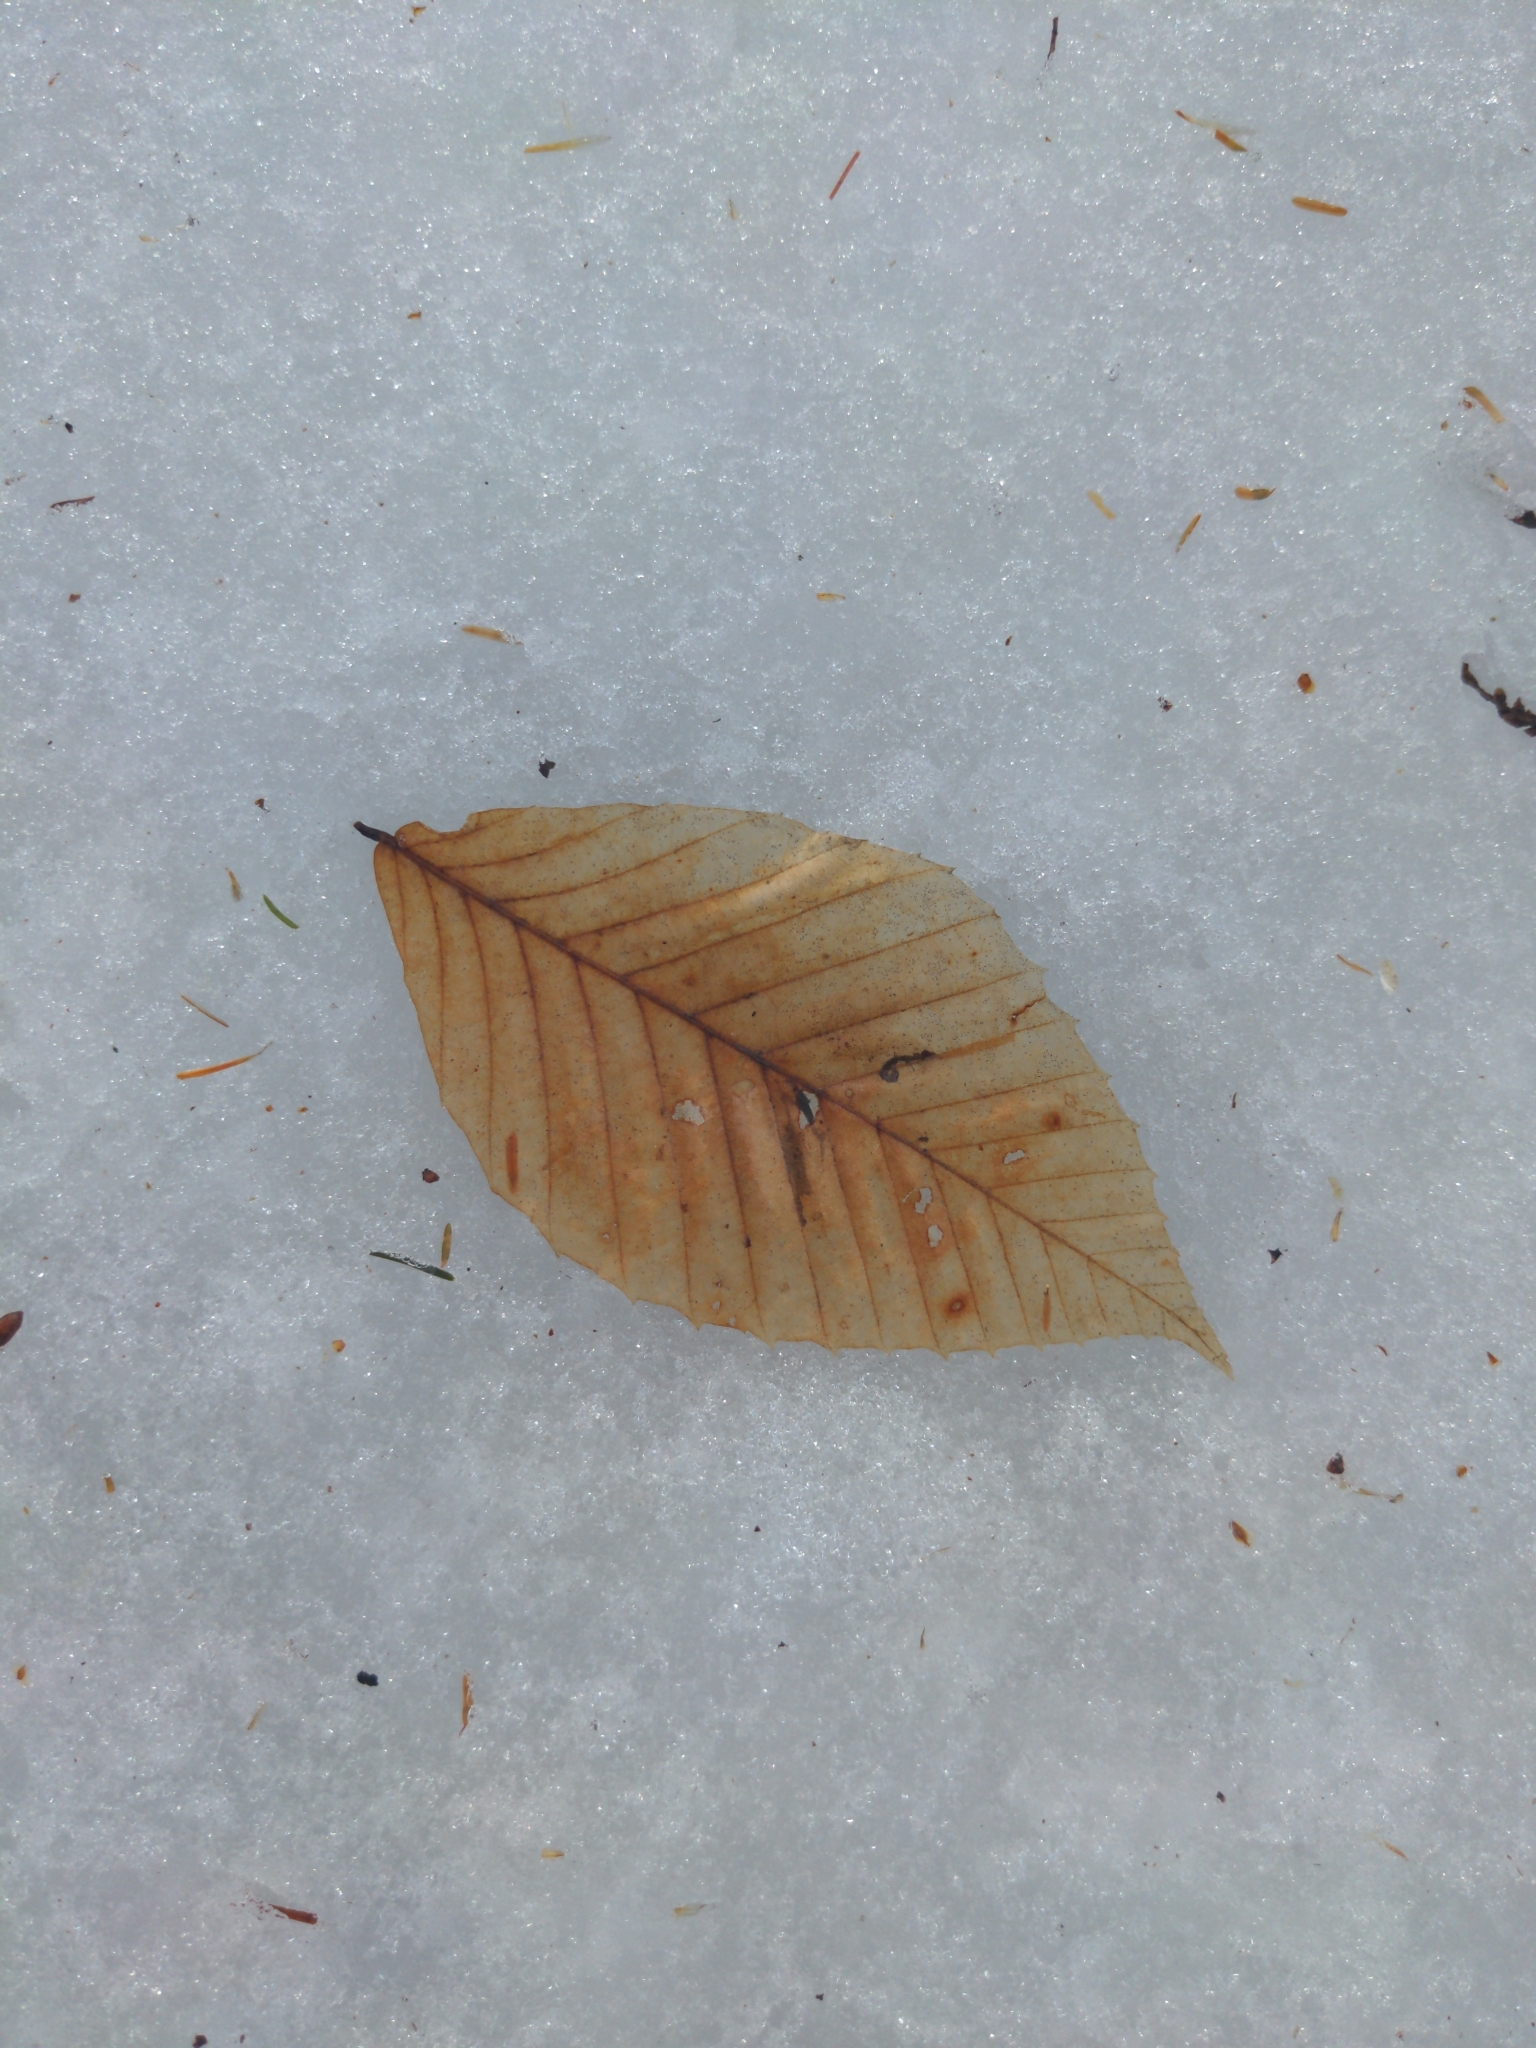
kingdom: Plantae
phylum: Tracheophyta
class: Magnoliopsida
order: Fagales
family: Fagaceae
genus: Fagus
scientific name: Fagus grandifolia
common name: American beech
